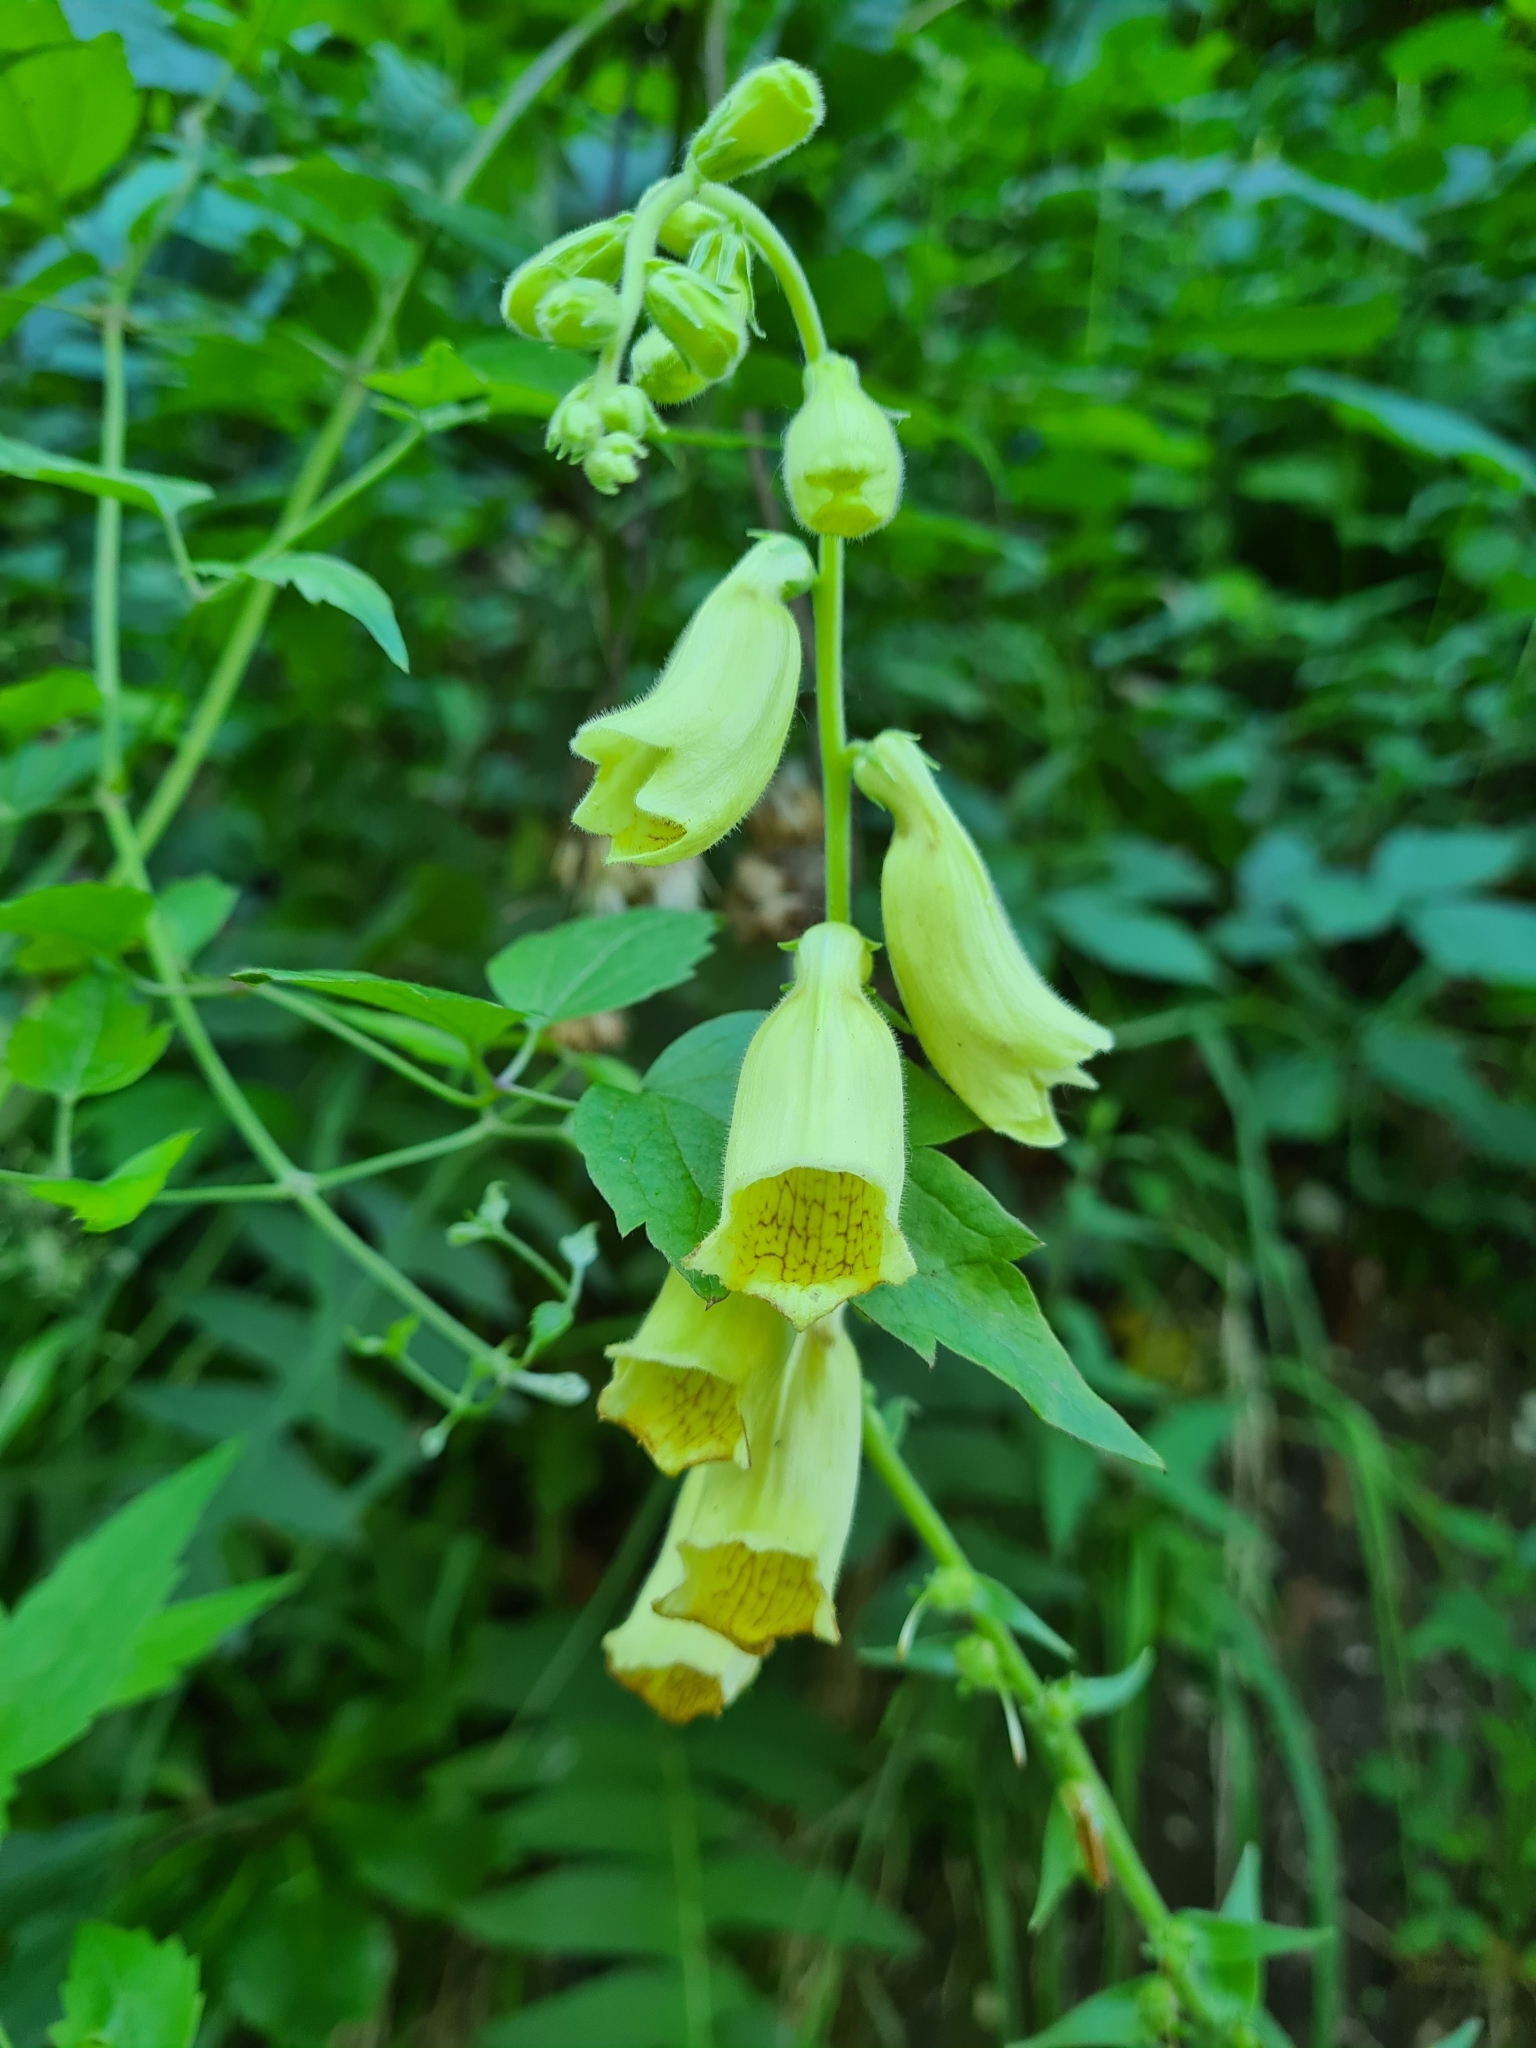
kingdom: Plantae
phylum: Tracheophyta
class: Magnoliopsida
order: Lamiales
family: Plantaginaceae
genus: Digitalis
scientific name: Digitalis grandiflora
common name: Yellow foxglove
